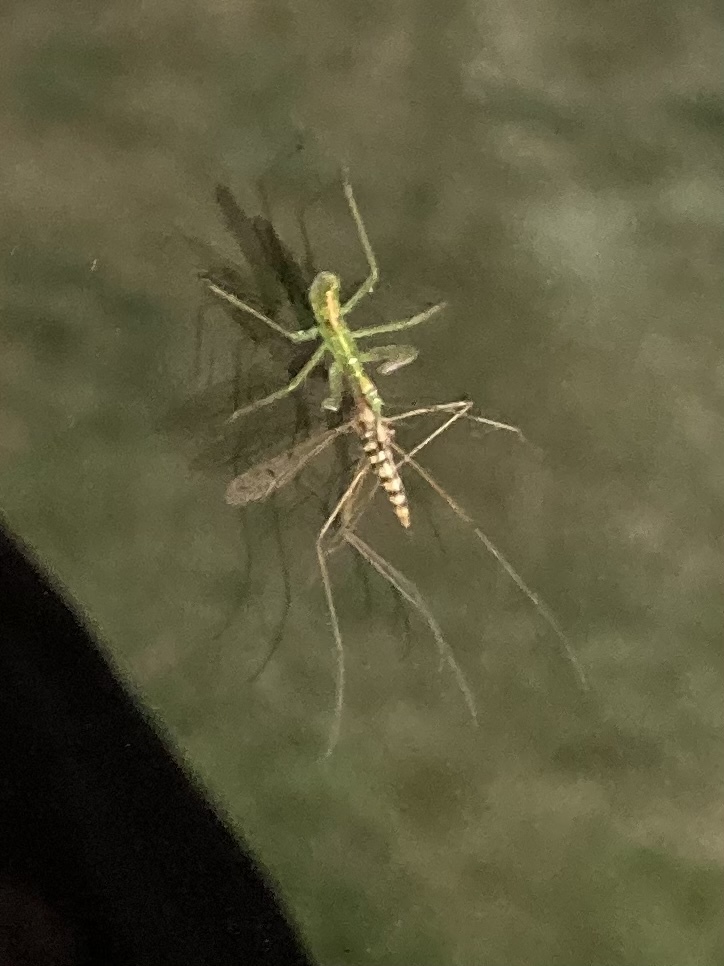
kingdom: Animalia
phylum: Arthropoda
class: Insecta
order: Hemiptera
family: Reduviidae
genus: Zelus
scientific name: Zelus luridus
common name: Pale green assassin bug
